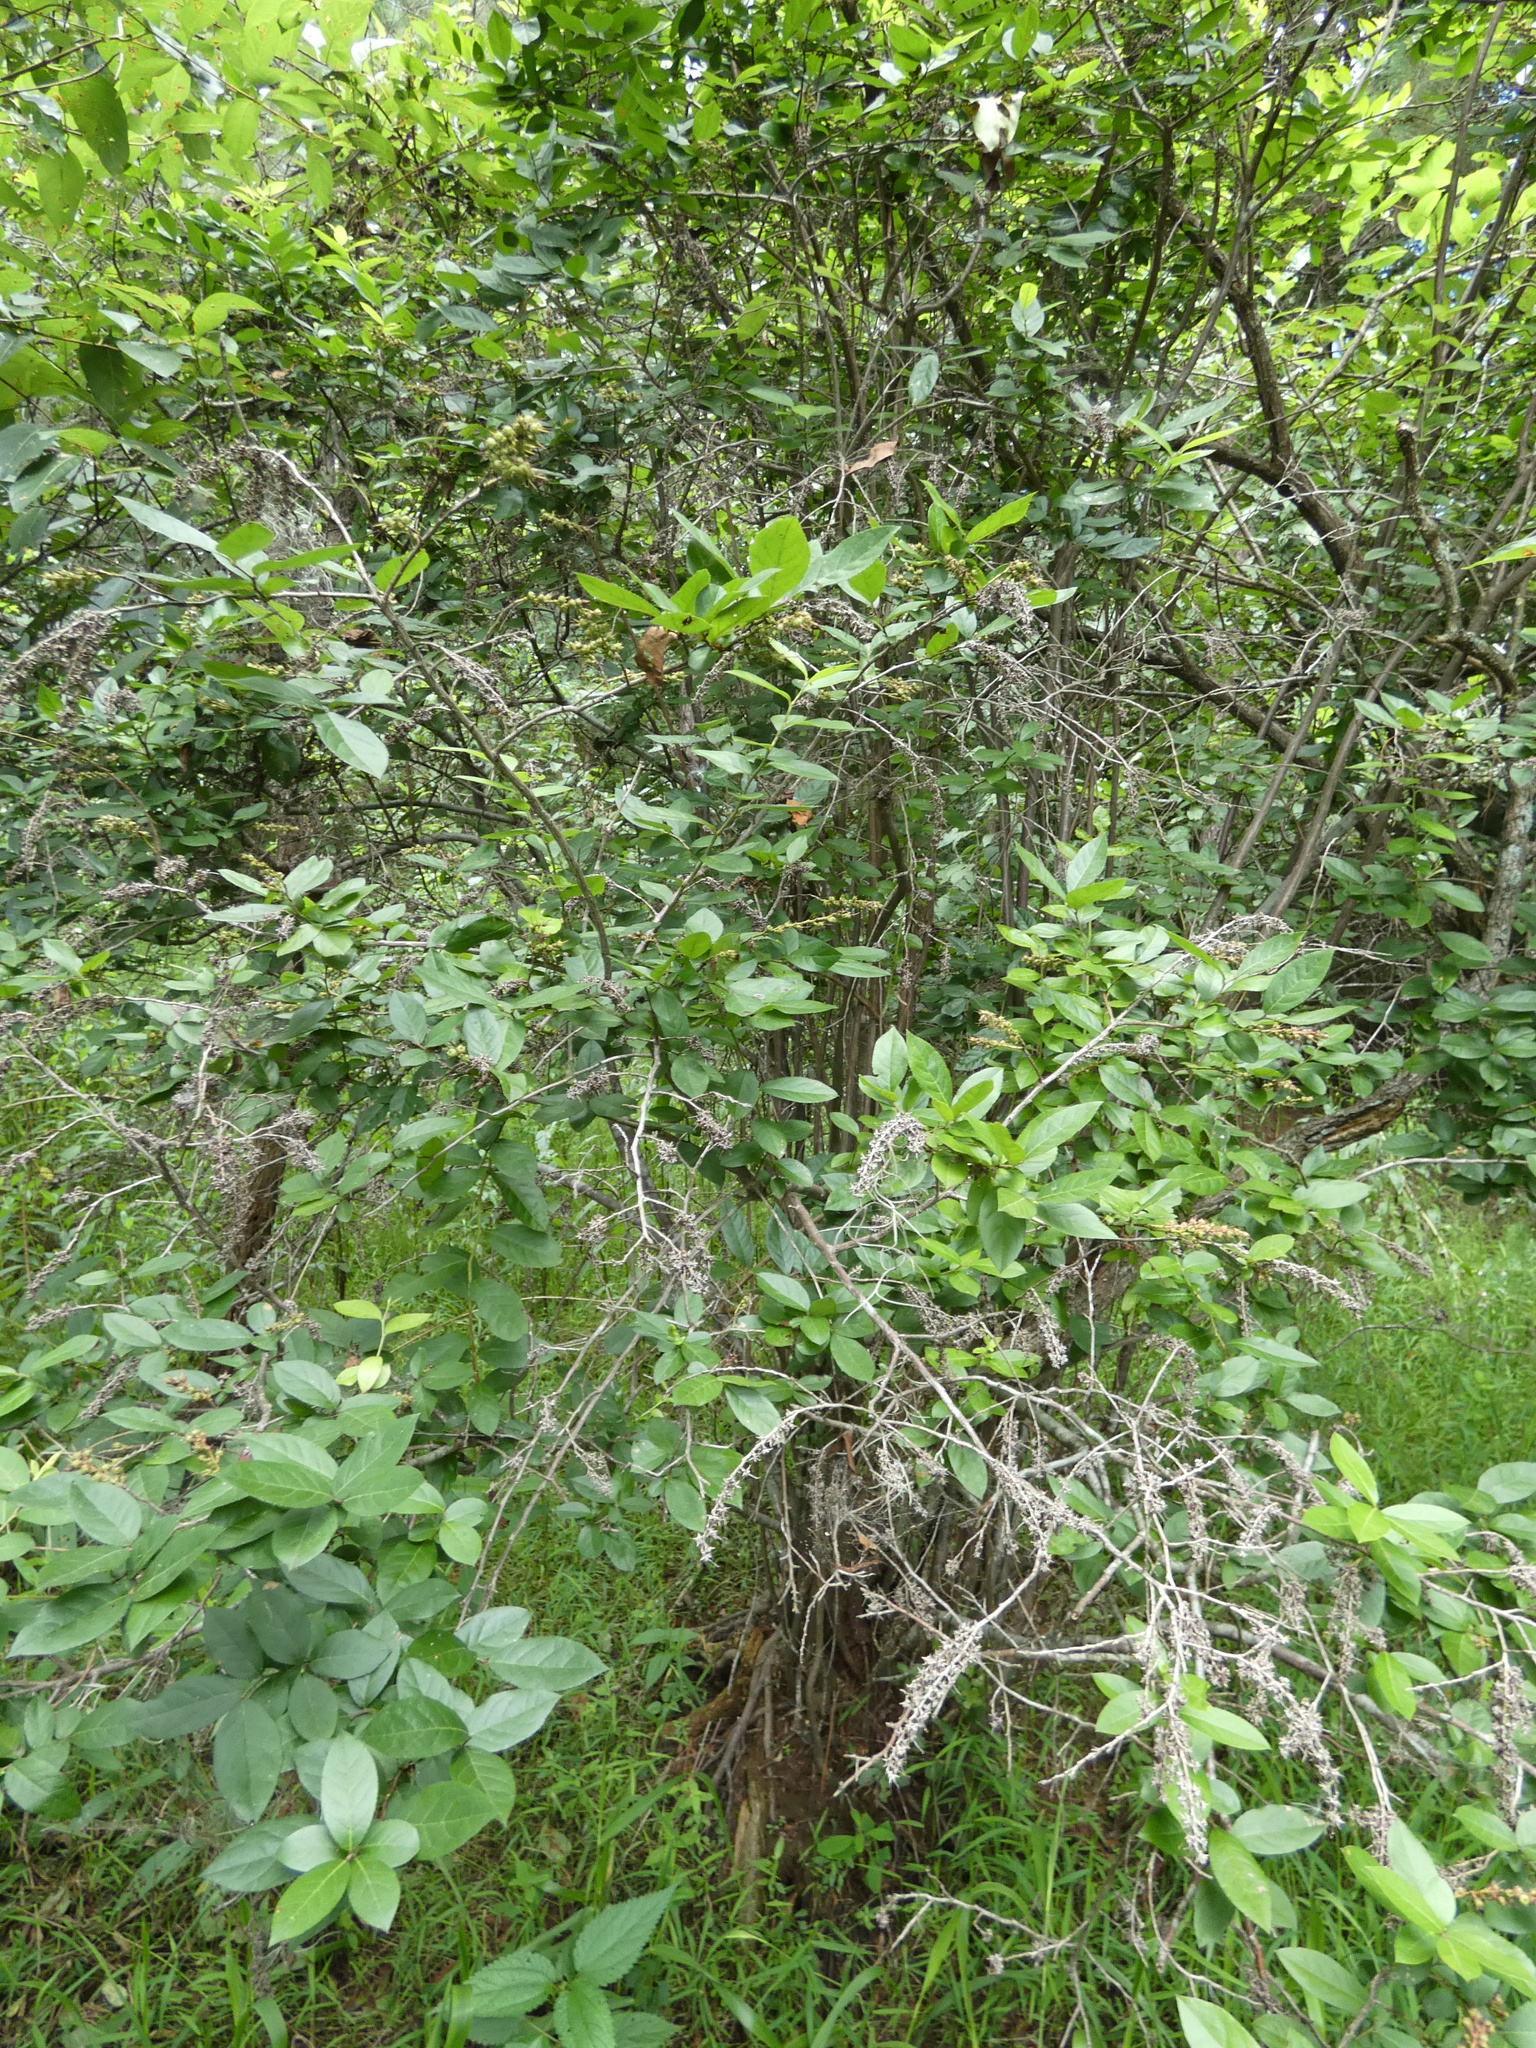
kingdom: Plantae
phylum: Tracheophyta
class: Magnoliopsida
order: Ericales
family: Ericaceae
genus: Eubotrys
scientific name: Eubotrys racemosa
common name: Fetterbush
